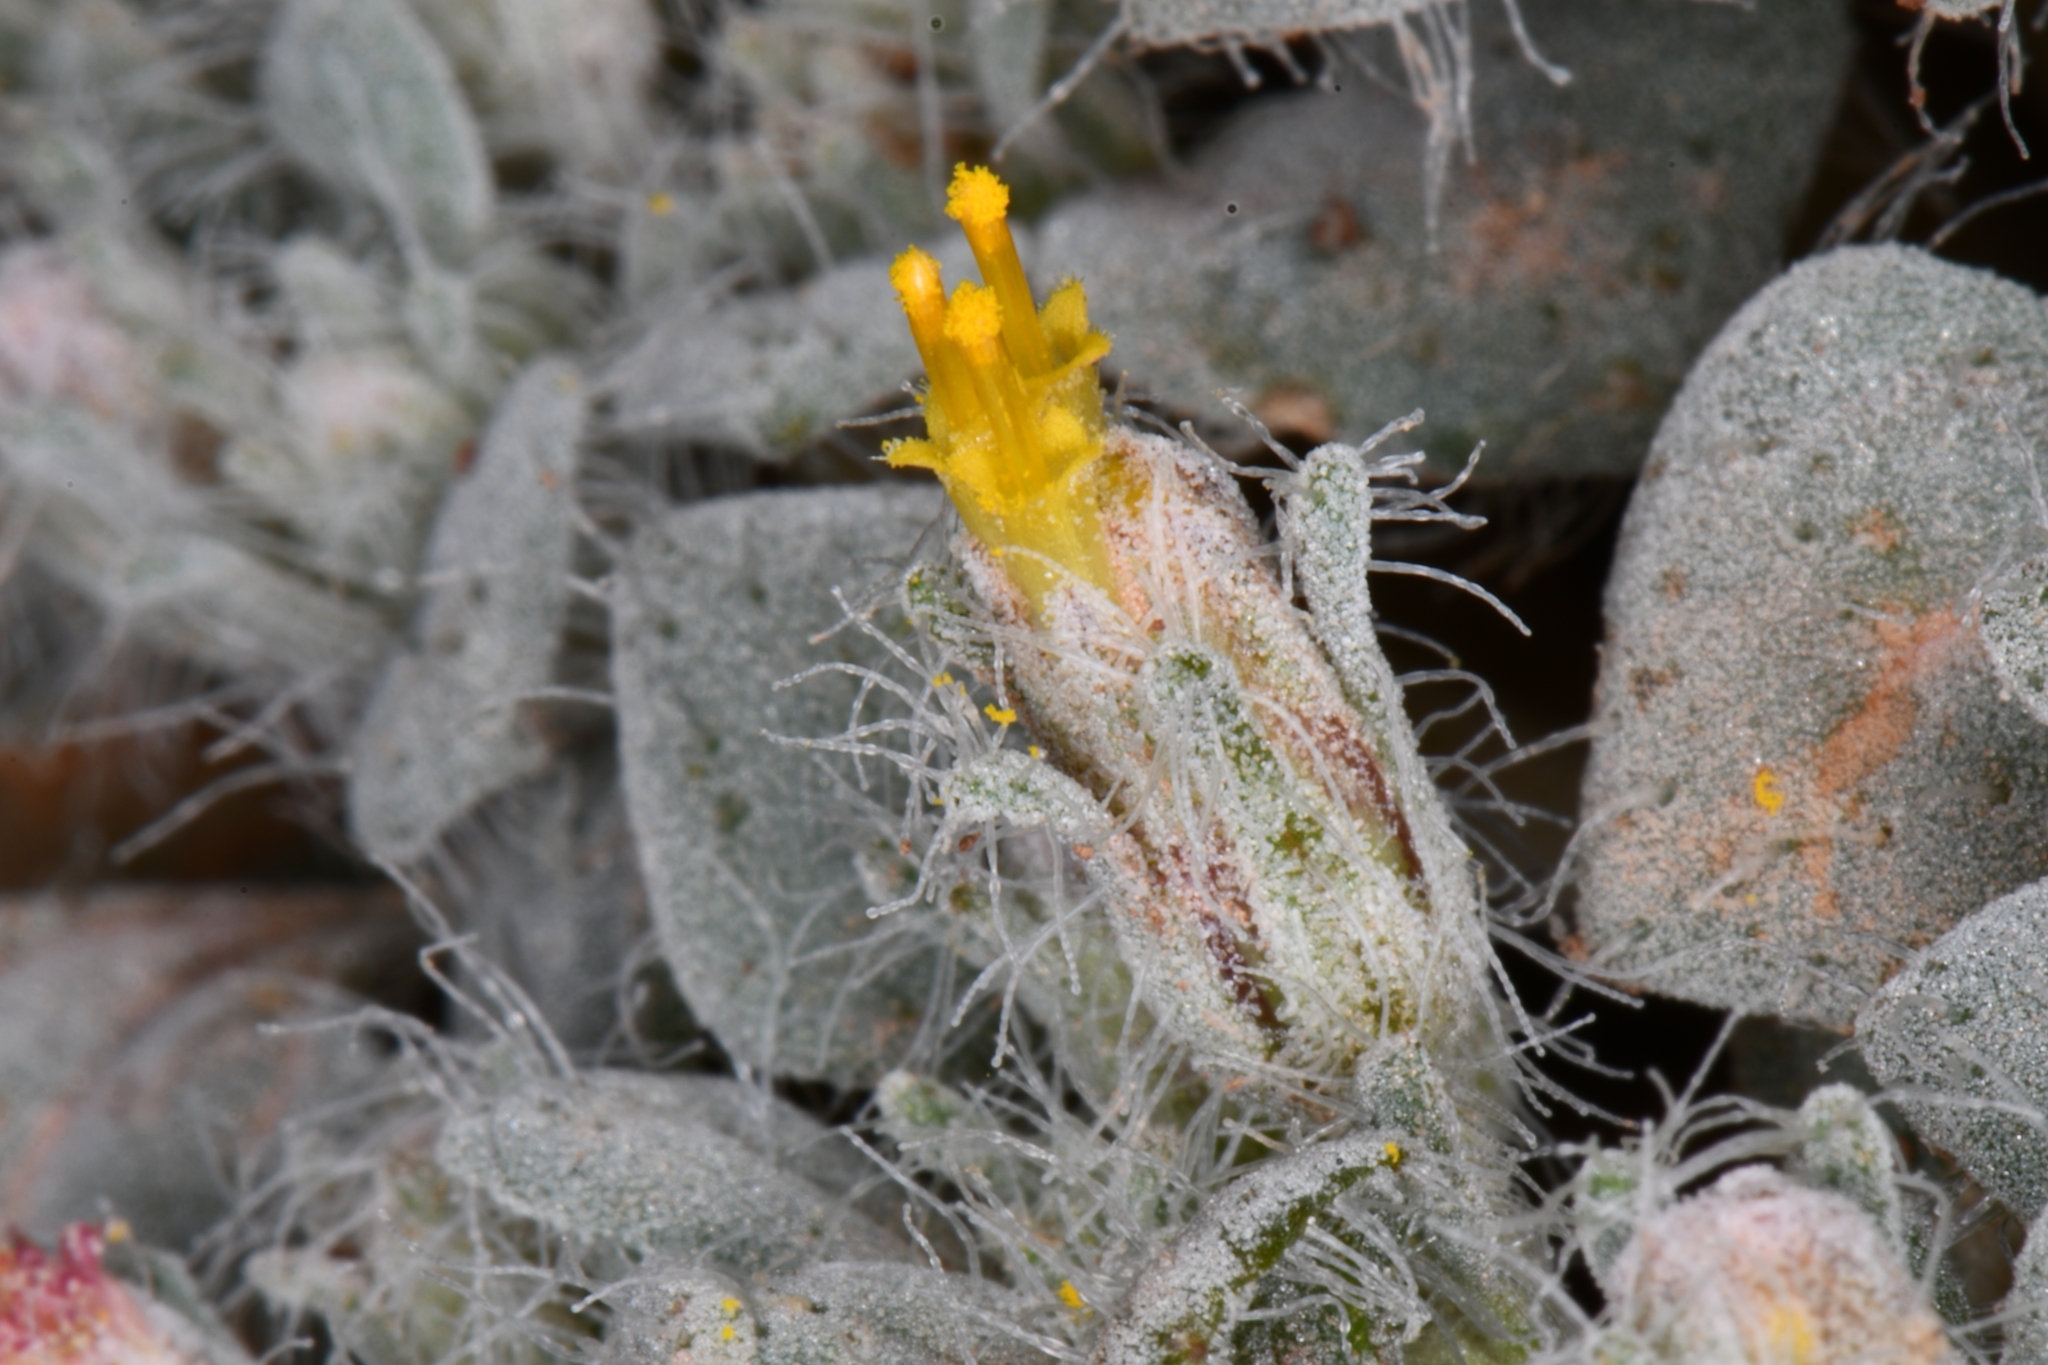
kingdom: Plantae
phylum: Tracheophyta
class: Magnoliopsida
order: Asterales
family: Asteraceae
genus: Psathyrotes
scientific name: Psathyrotes pilifera
